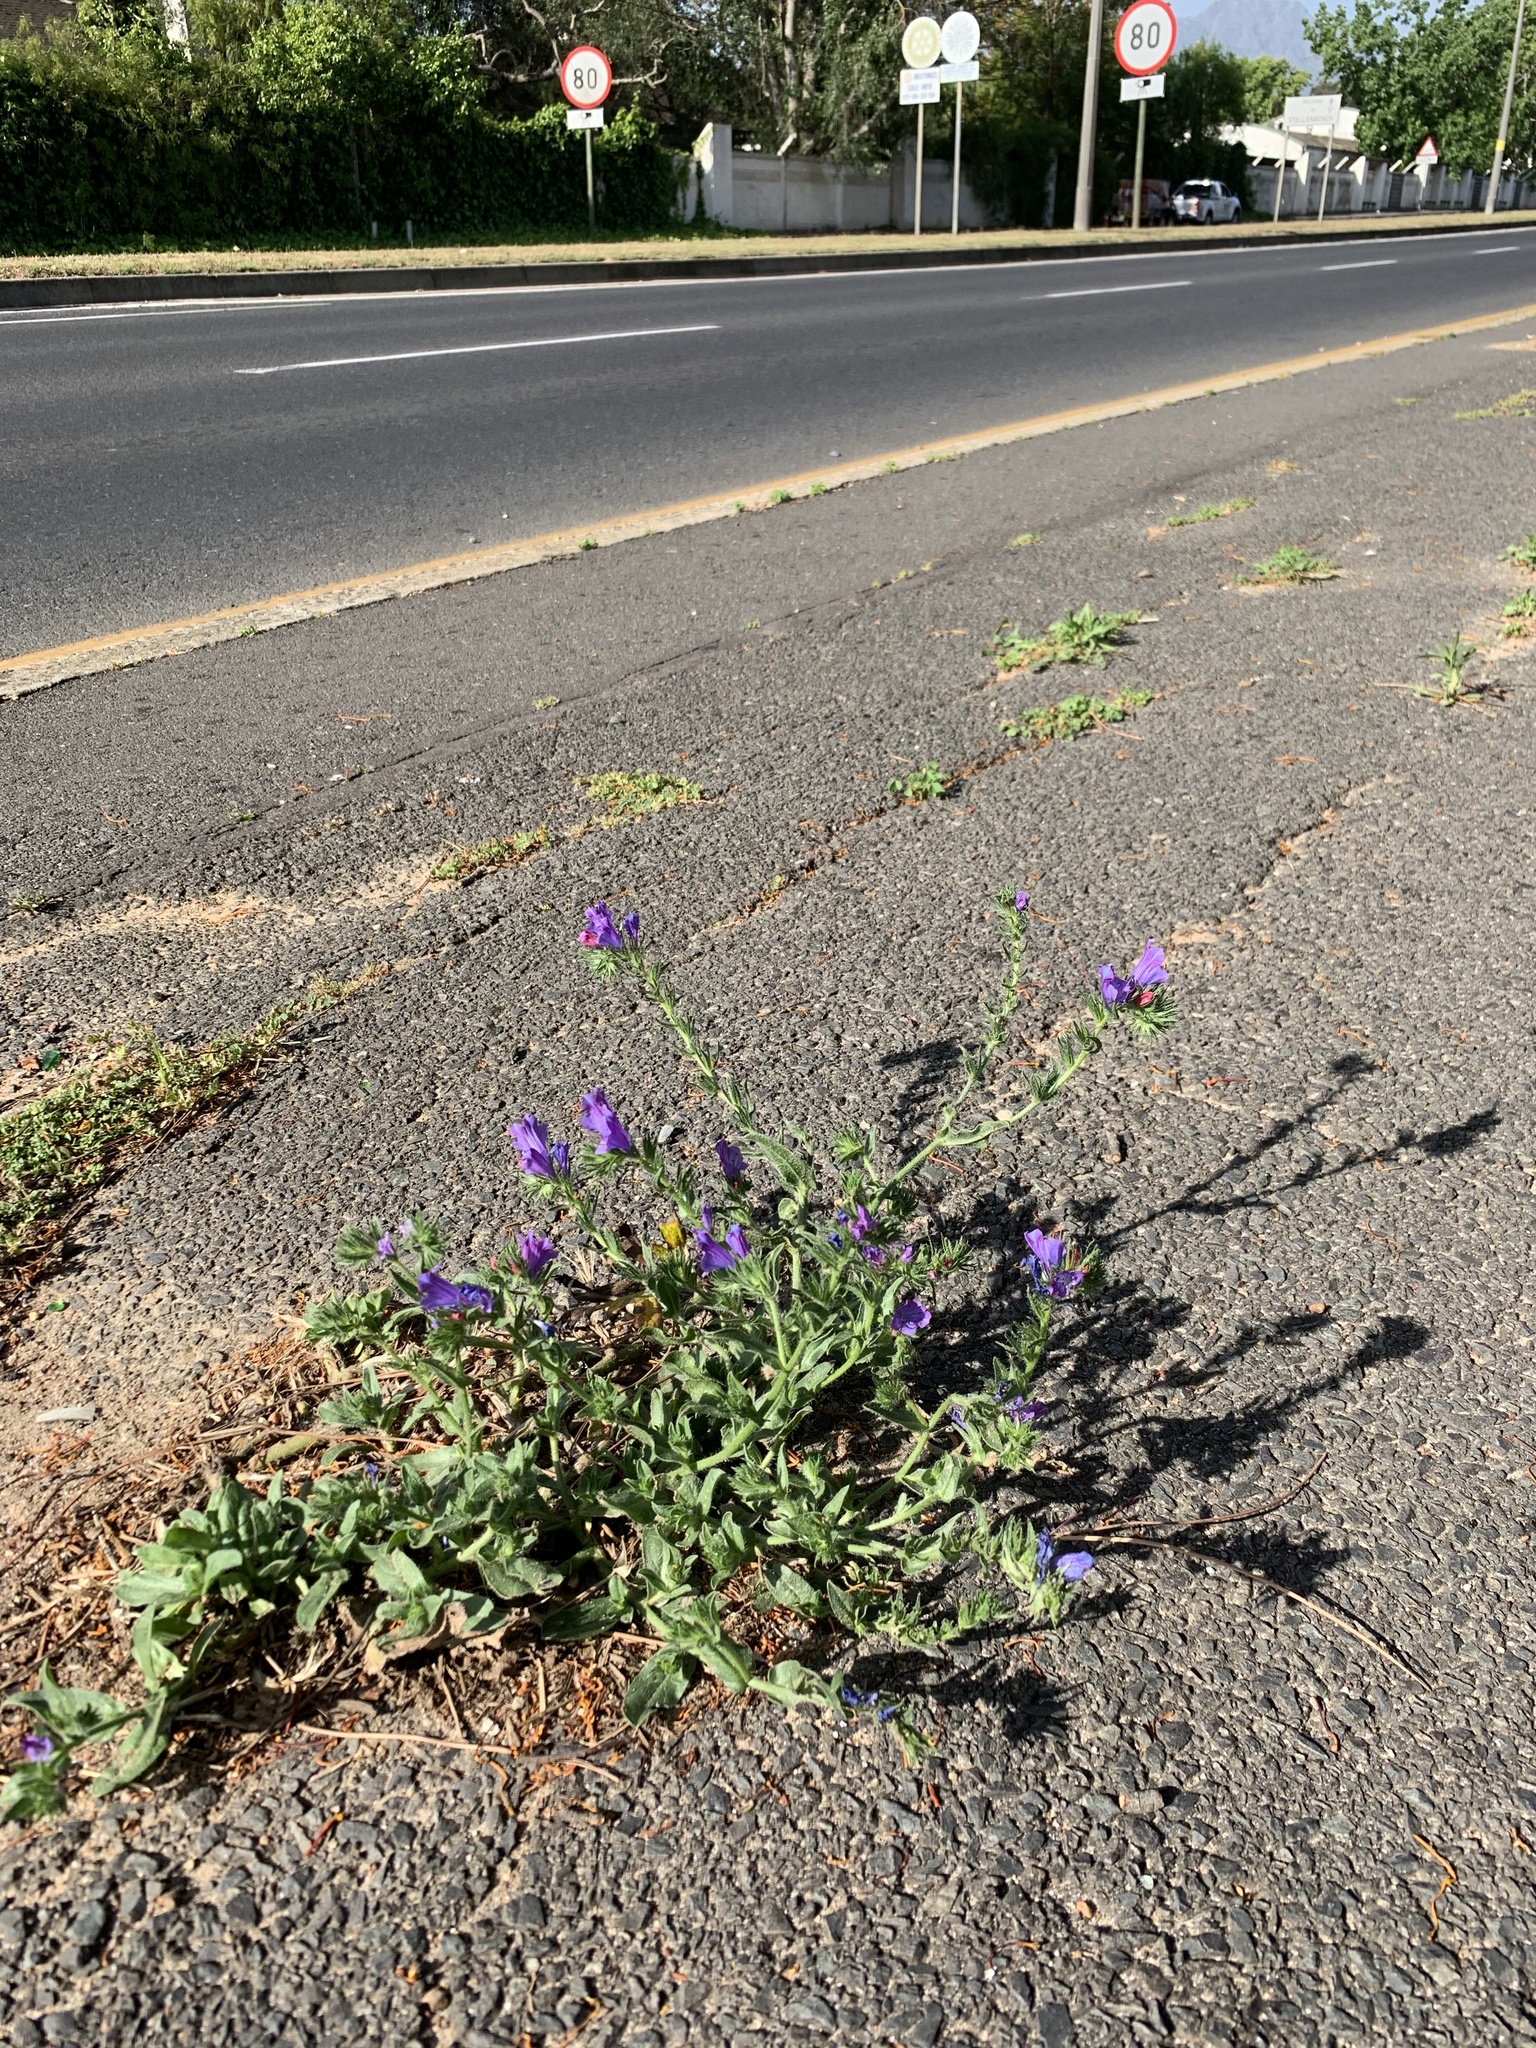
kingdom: Plantae
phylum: Tracheophyta
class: Magnoliopsida
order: Boraginales
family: Boraginaceae
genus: Echium
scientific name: Echium plantagineum
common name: Purple viper's-bugloss
